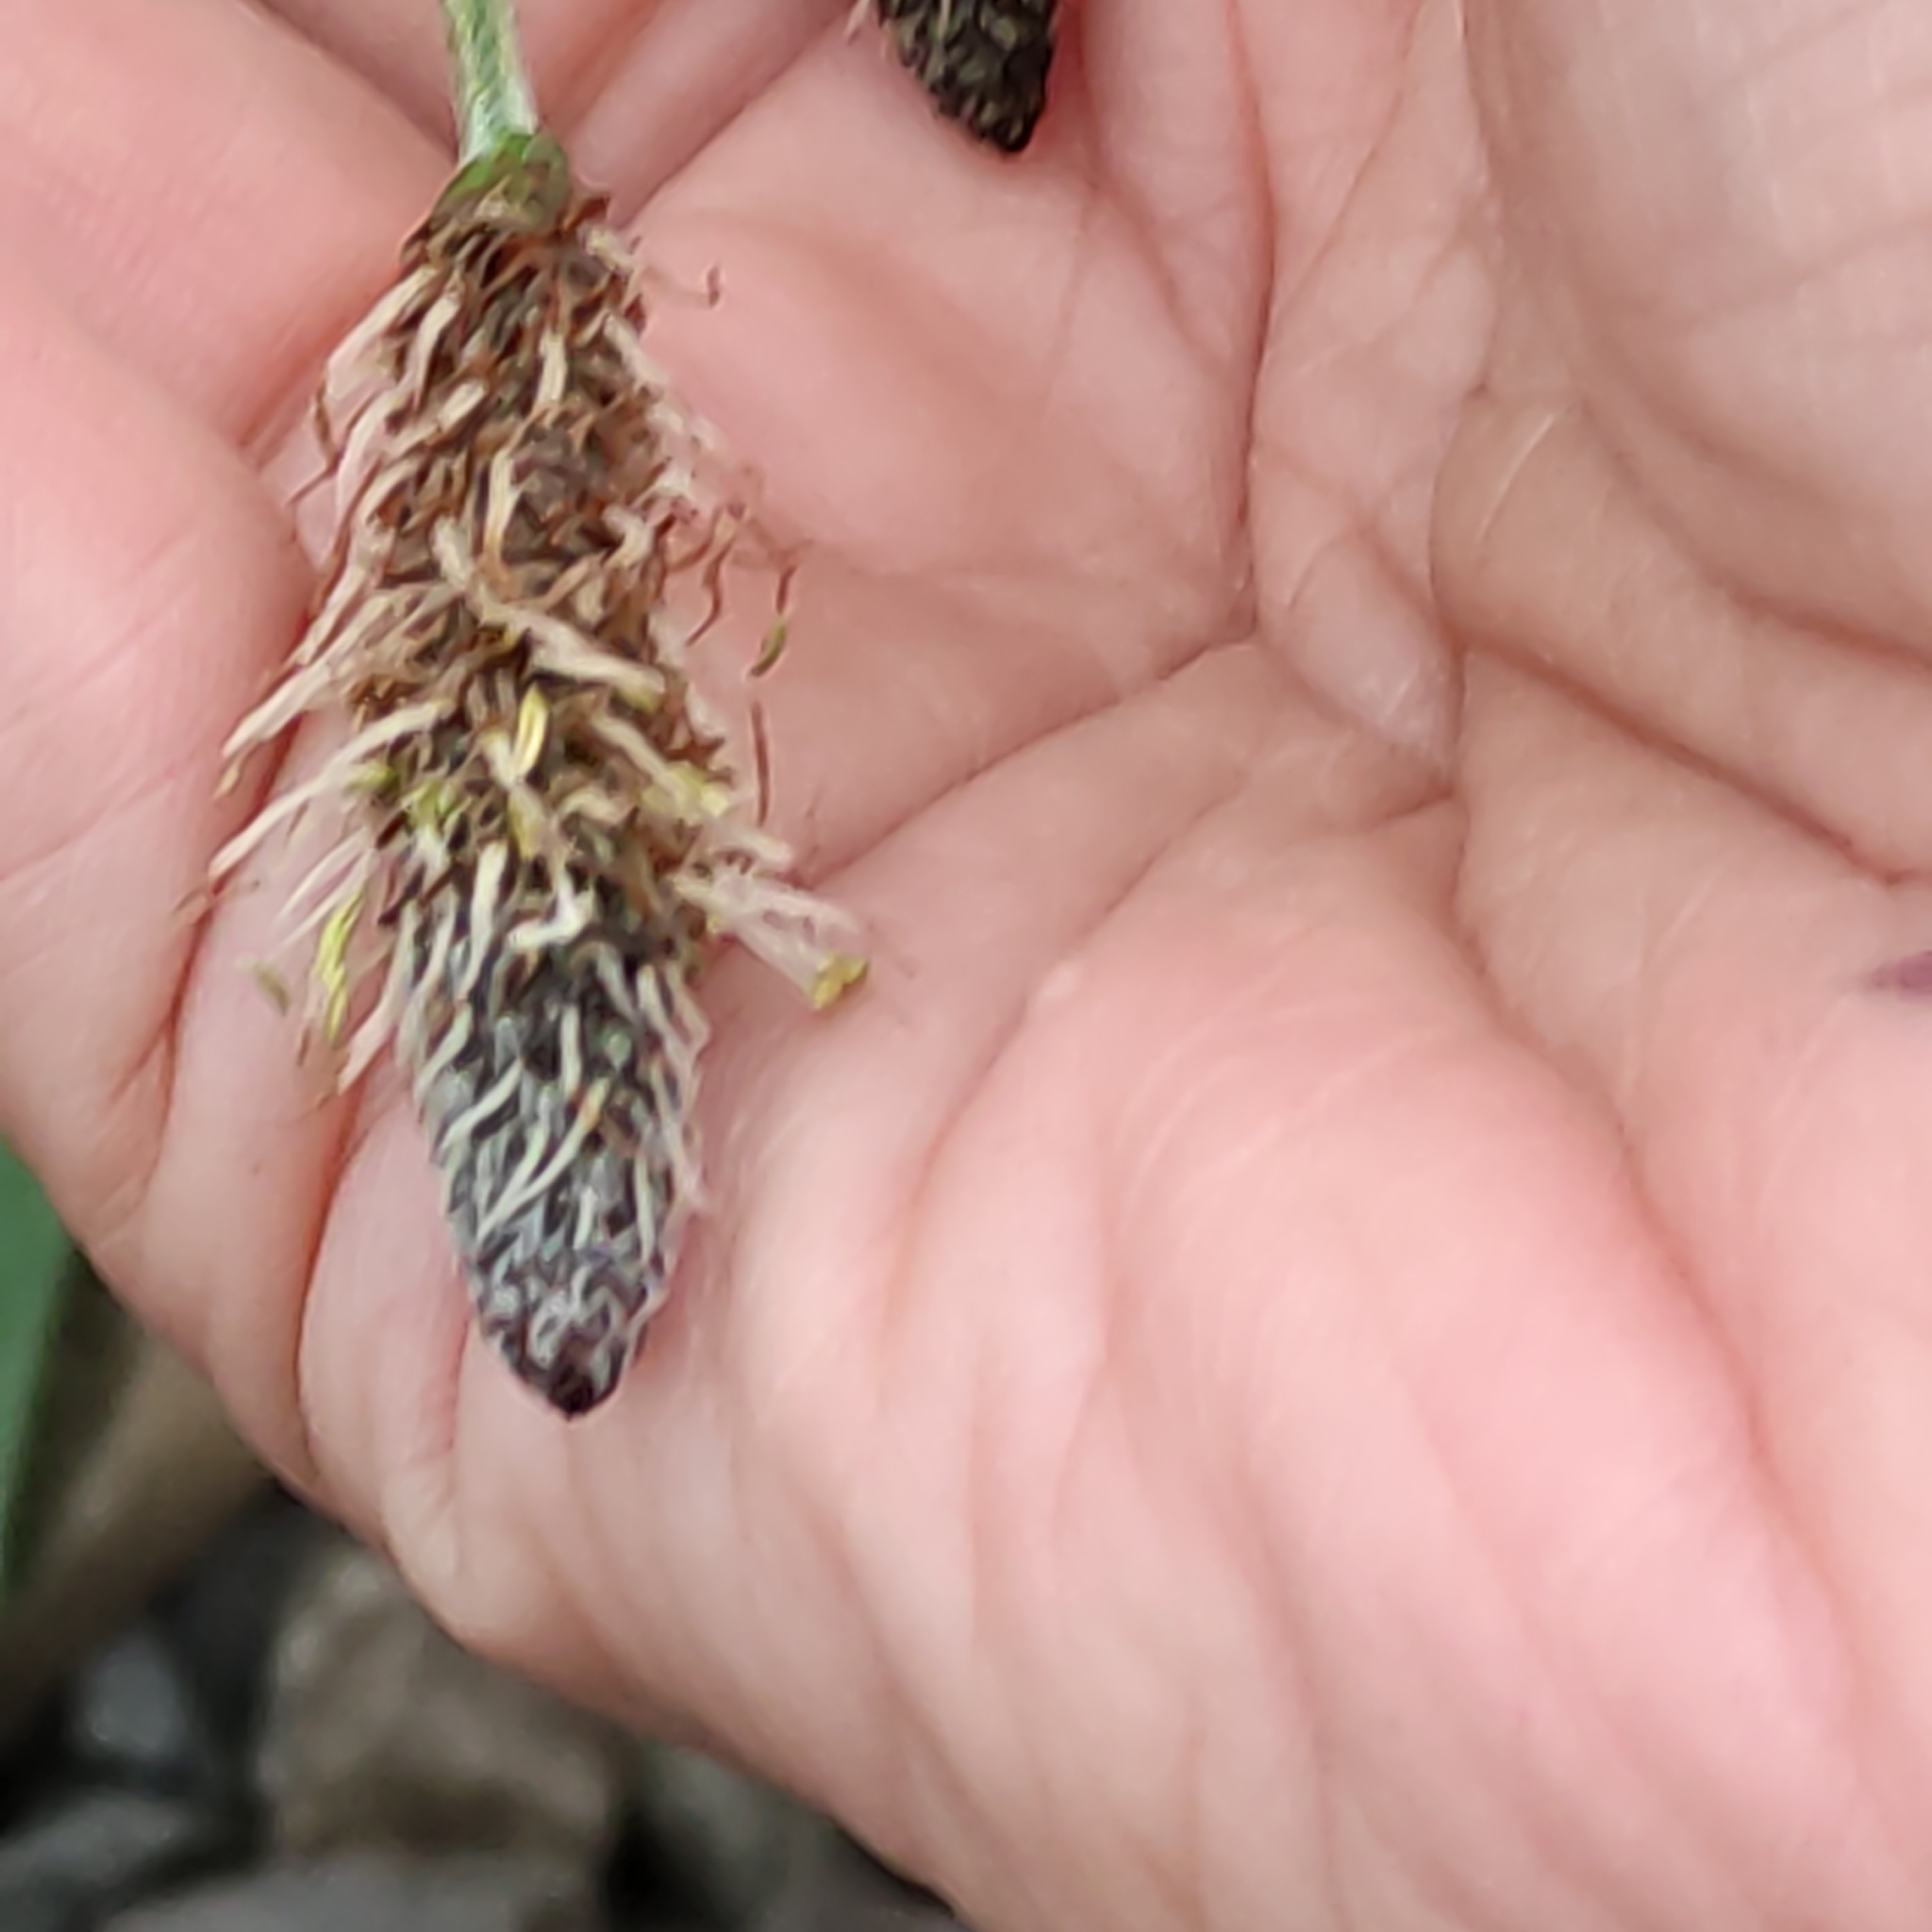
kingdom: Plantae
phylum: Tracheophyta
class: Magnoliopsida
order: Lamiales
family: Plantaginaceae
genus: Plantago
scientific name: Plantago lanceolata
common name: Ribwort plantain
